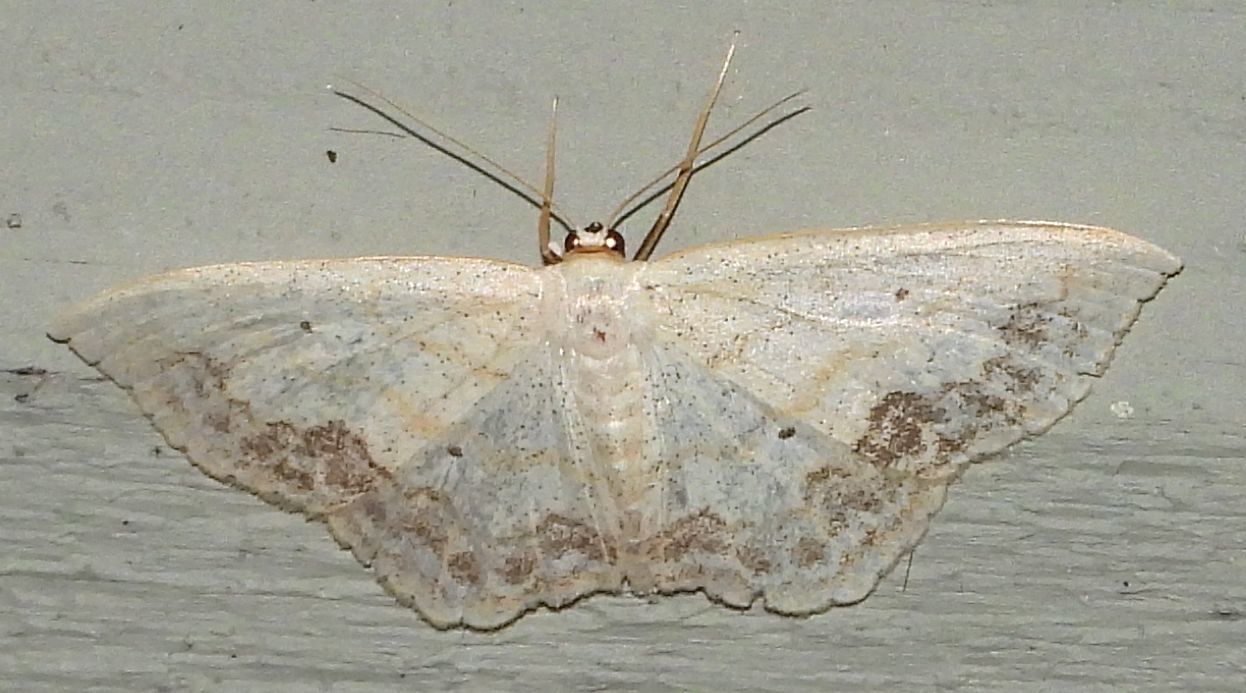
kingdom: Animalia
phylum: Arthropoda
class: Insecta
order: Lepidoptera
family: Geometridae
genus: Scopula
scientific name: Scopula limboundata
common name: Large lace border
